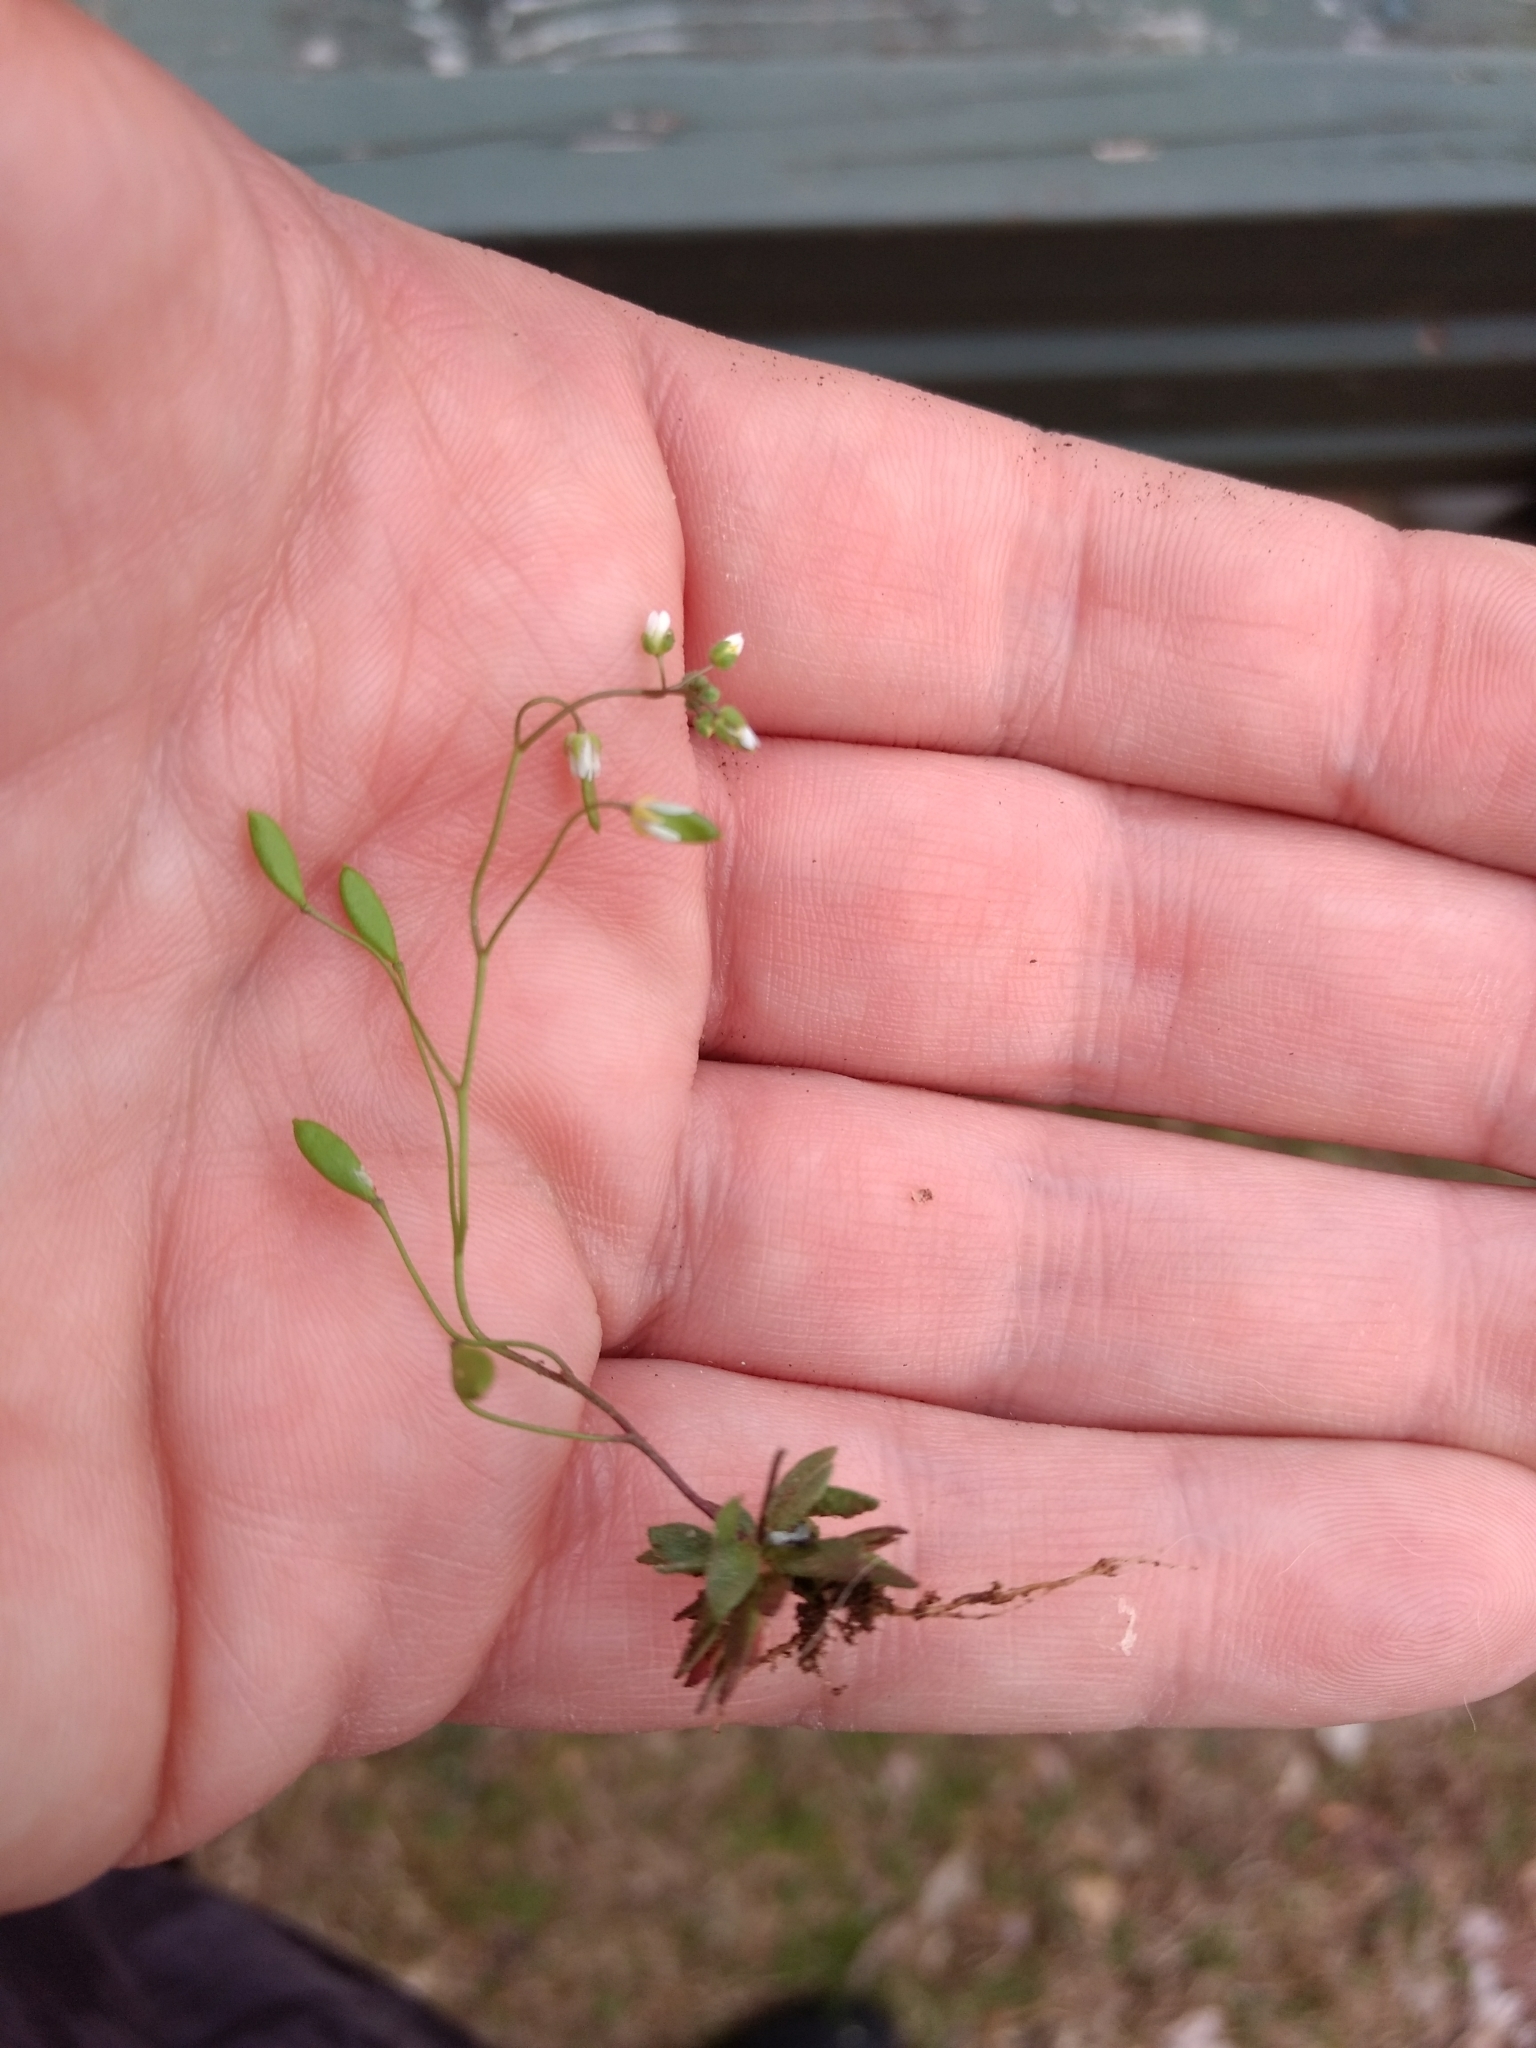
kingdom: Plantae
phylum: Tracheophyta
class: Magnoliopsida
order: Brassicales
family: Brassicaceae
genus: Draba
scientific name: Draba verna
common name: Spring draba
